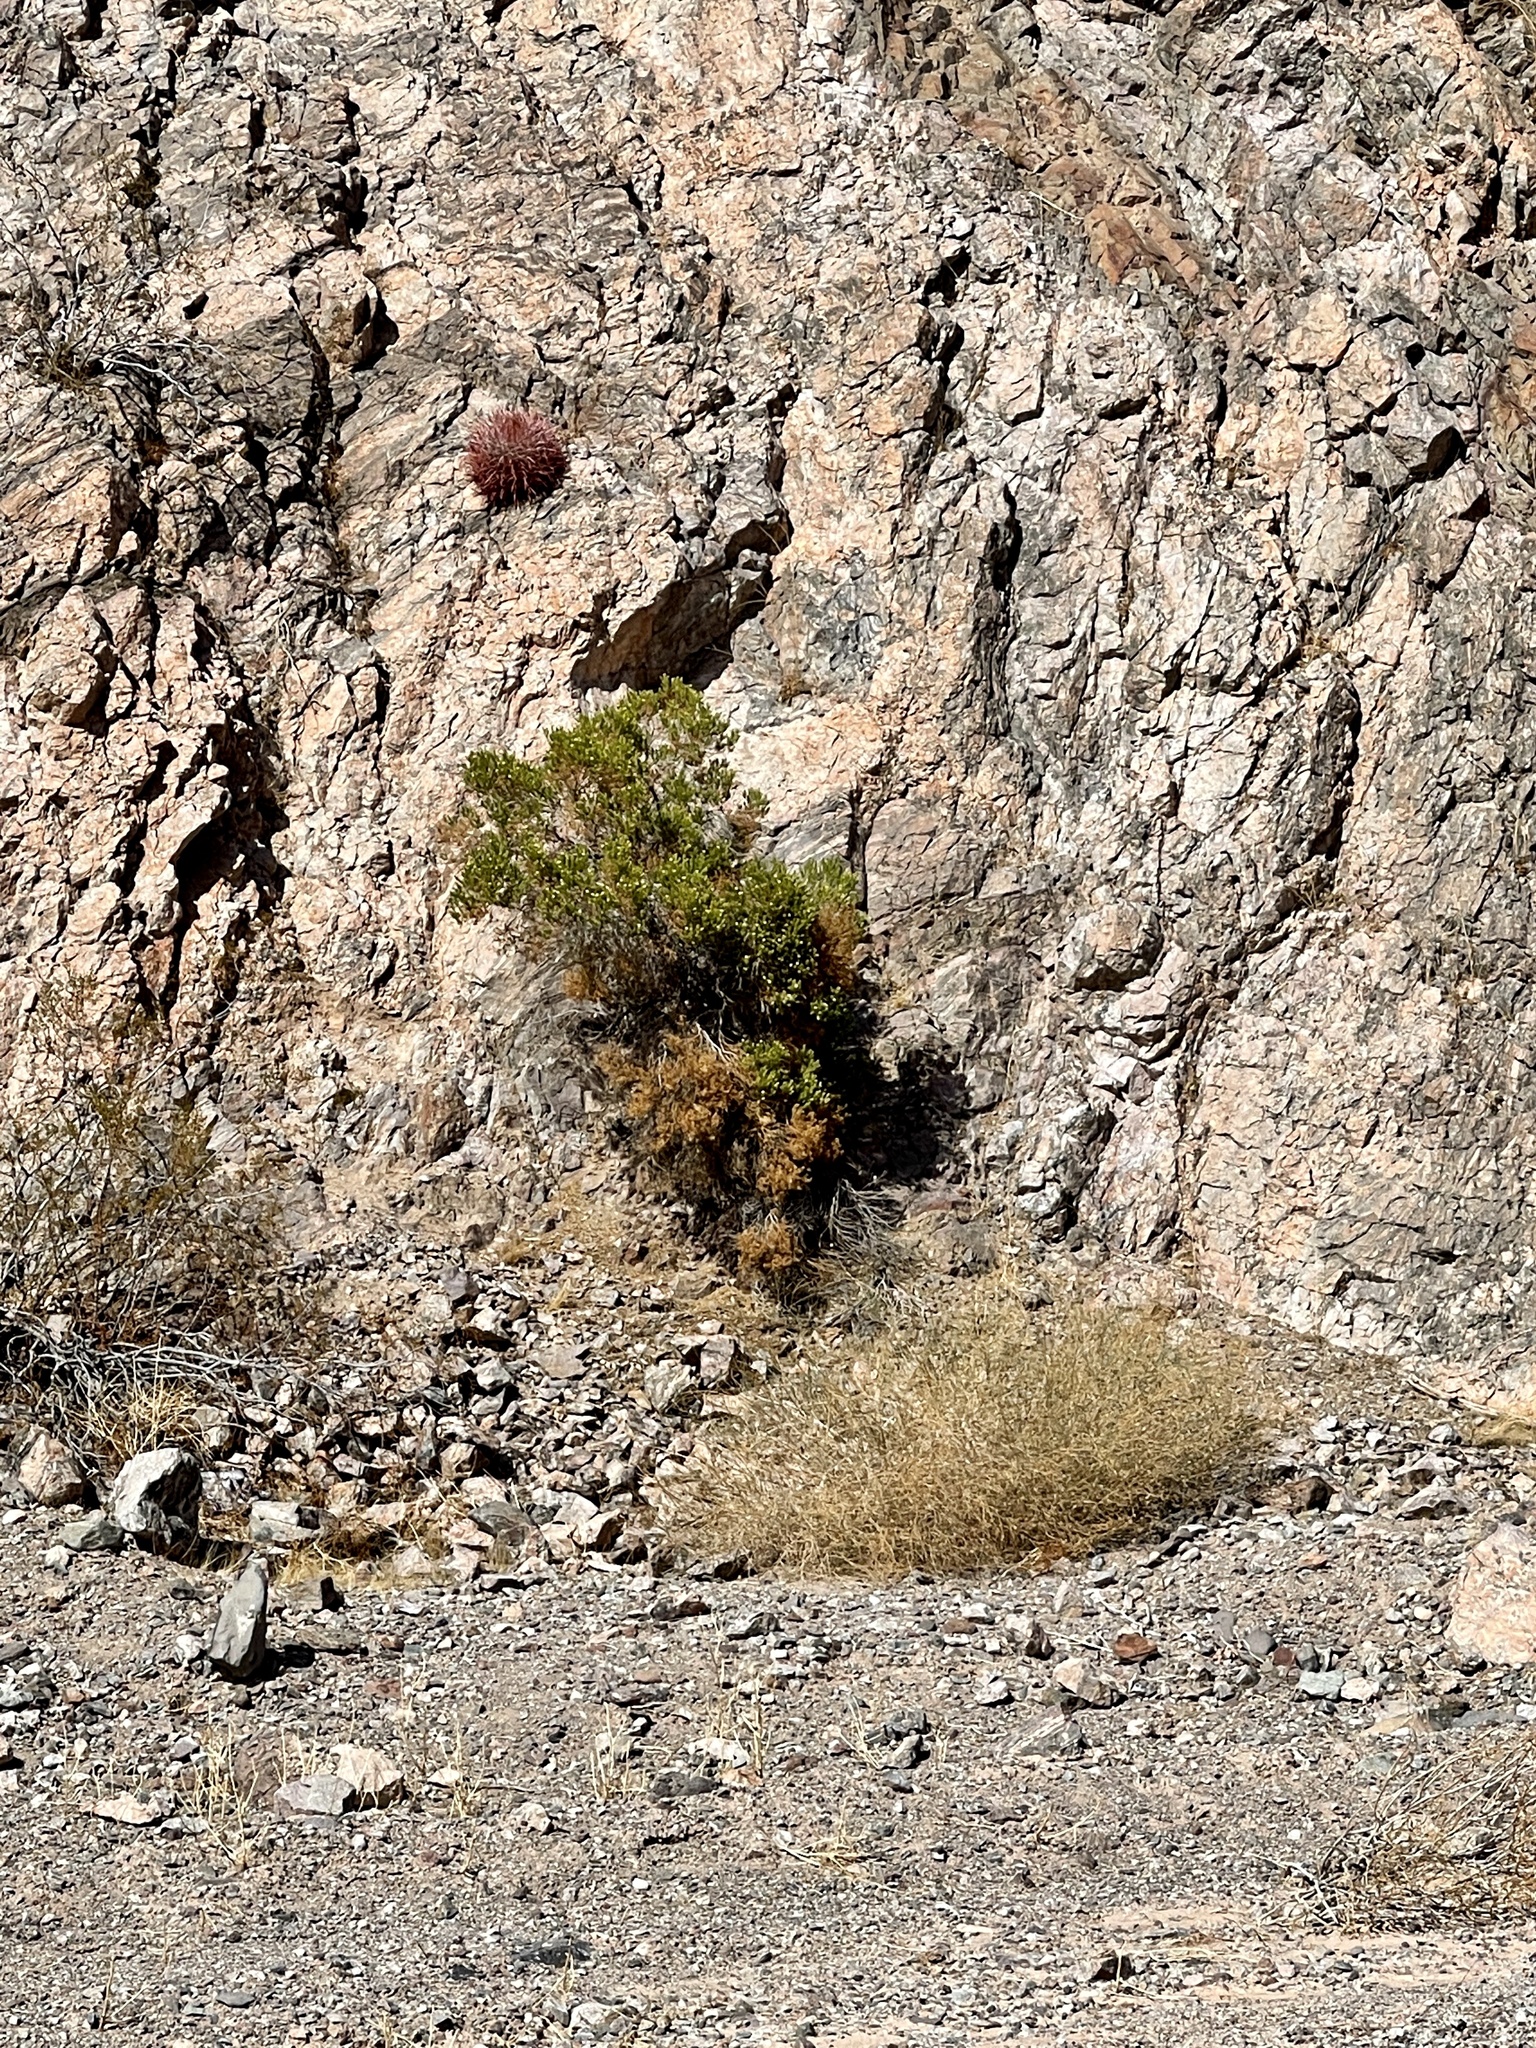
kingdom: Plantae
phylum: Tracheophyta
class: Magnoliopsida
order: Asterales
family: Asteraceae
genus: Peucephyllum
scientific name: Peucephyllum schottii
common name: Pygmy-cedar
